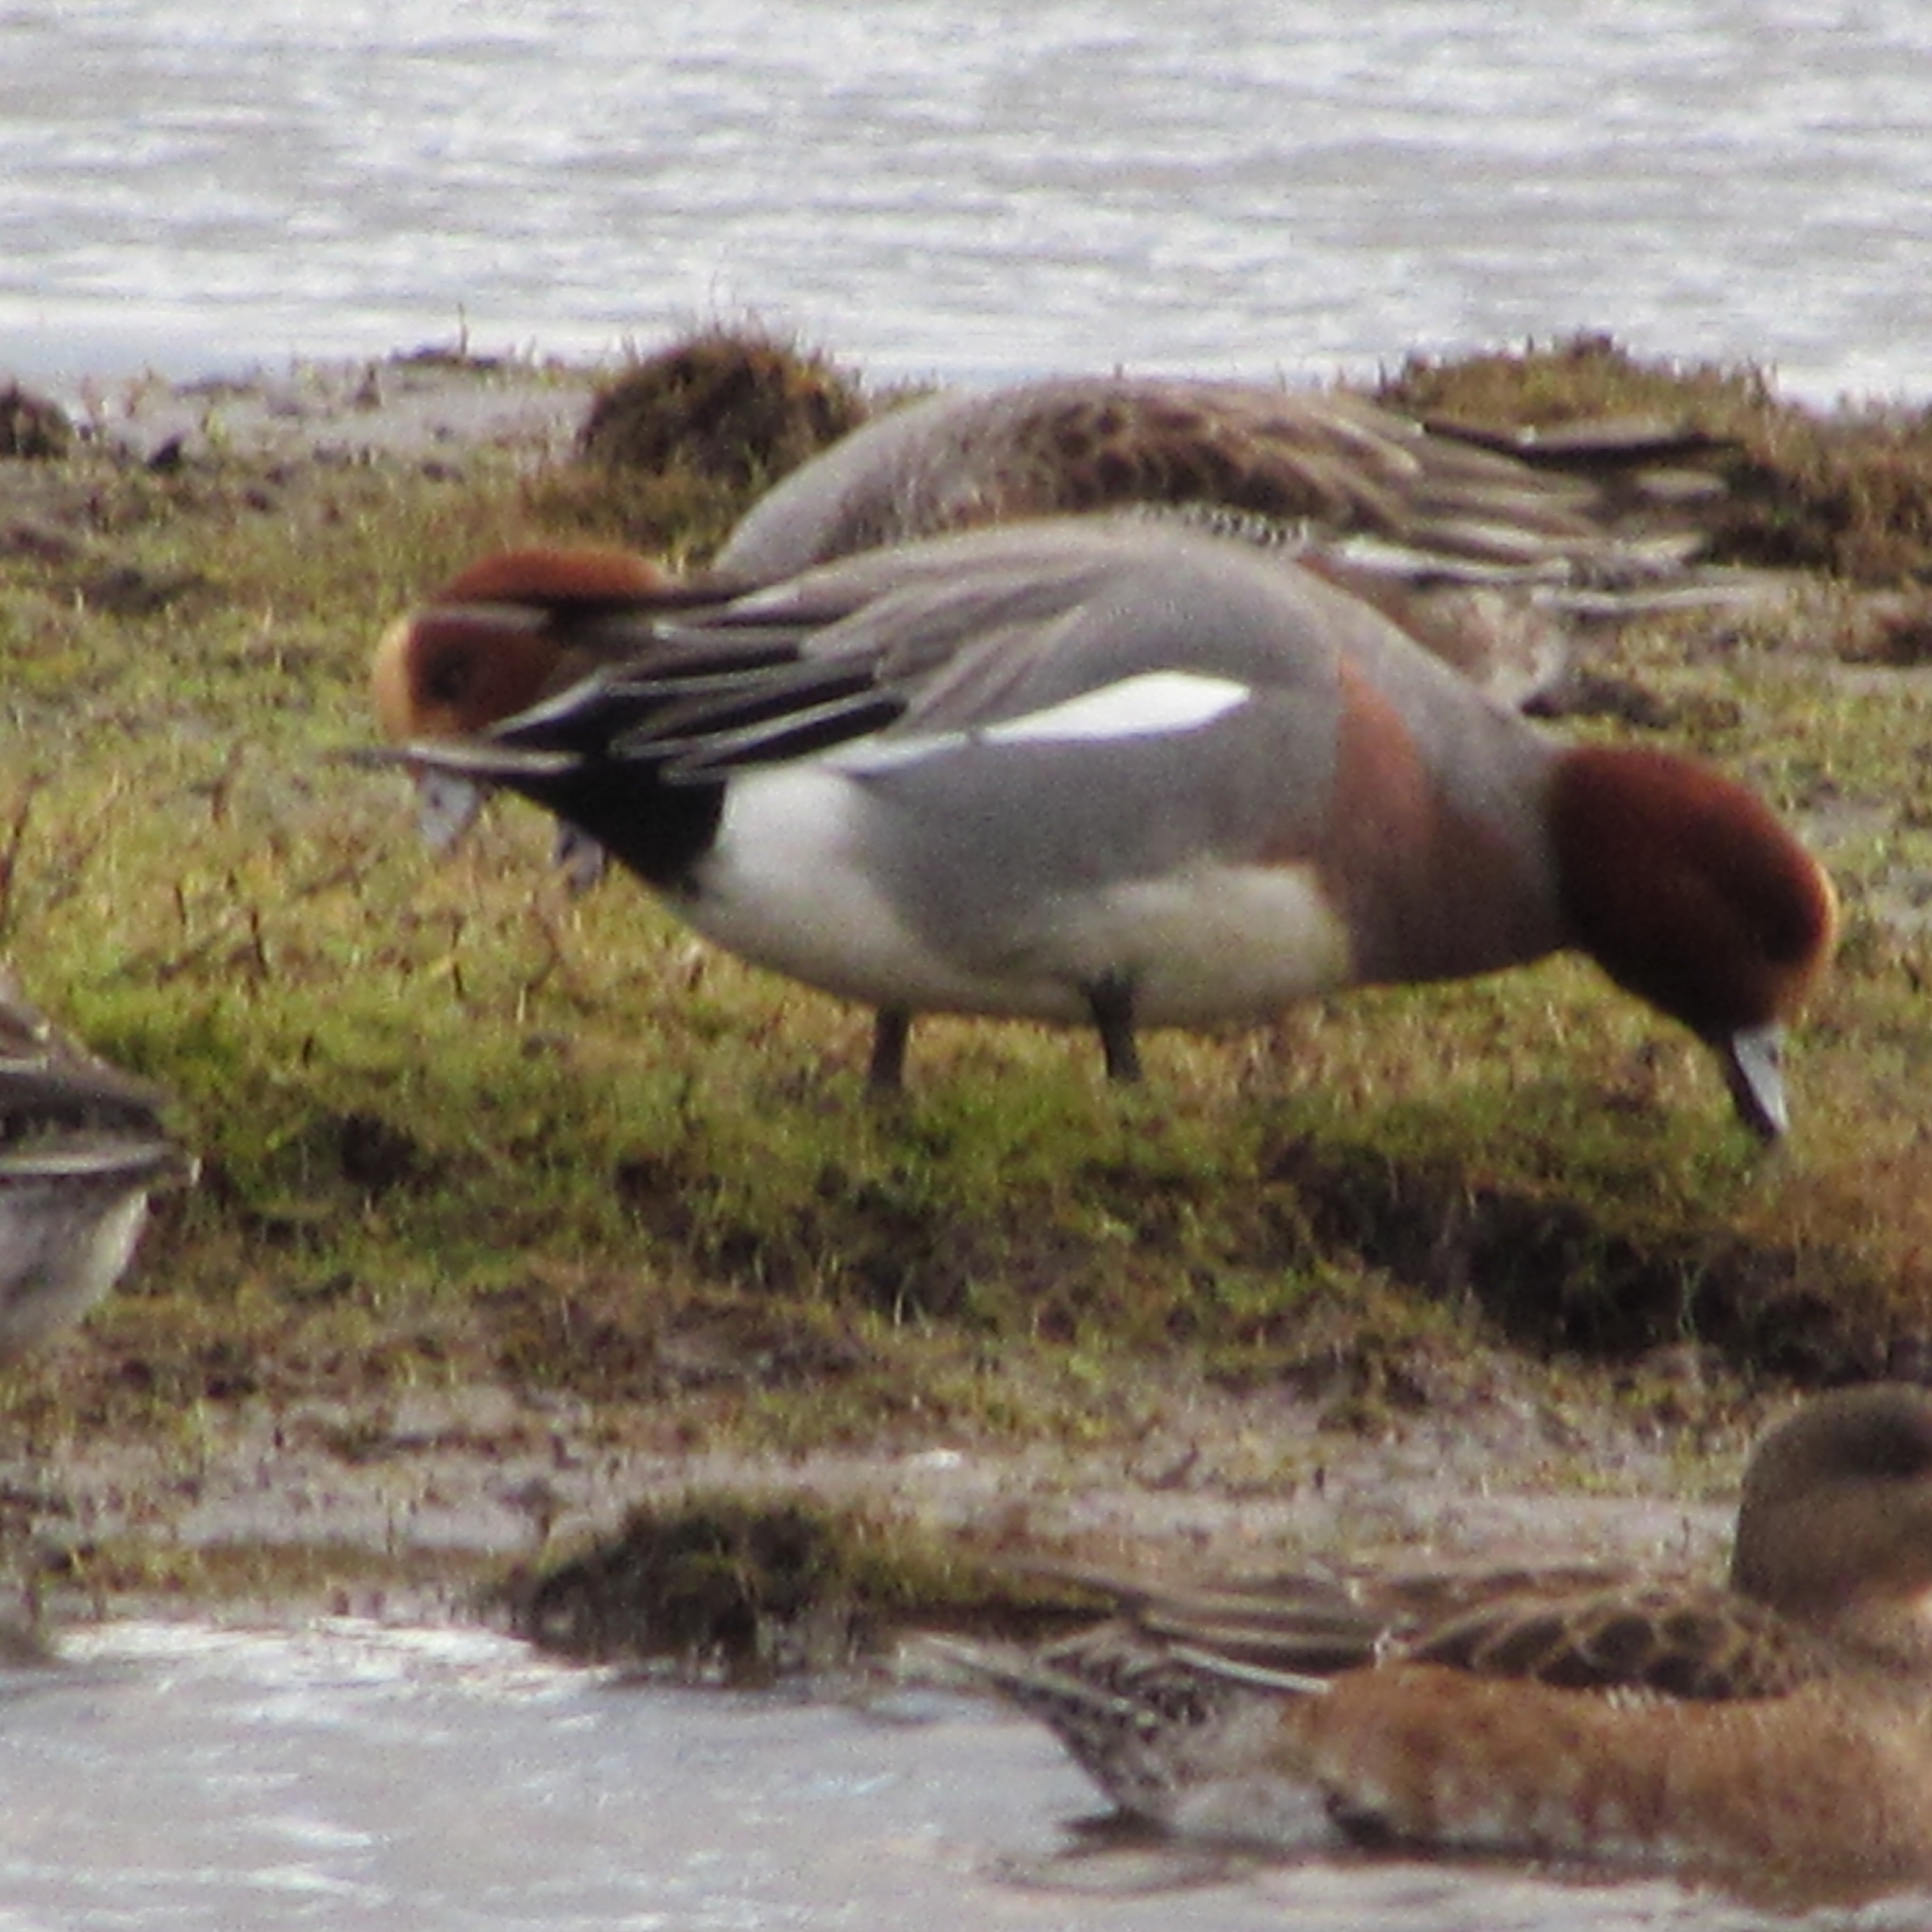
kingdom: Animalia
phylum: Chordata
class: Aves
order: Anseriformes
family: Anatidae
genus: Mareca
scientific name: Mareca penelope
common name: Eurasian wigeon
